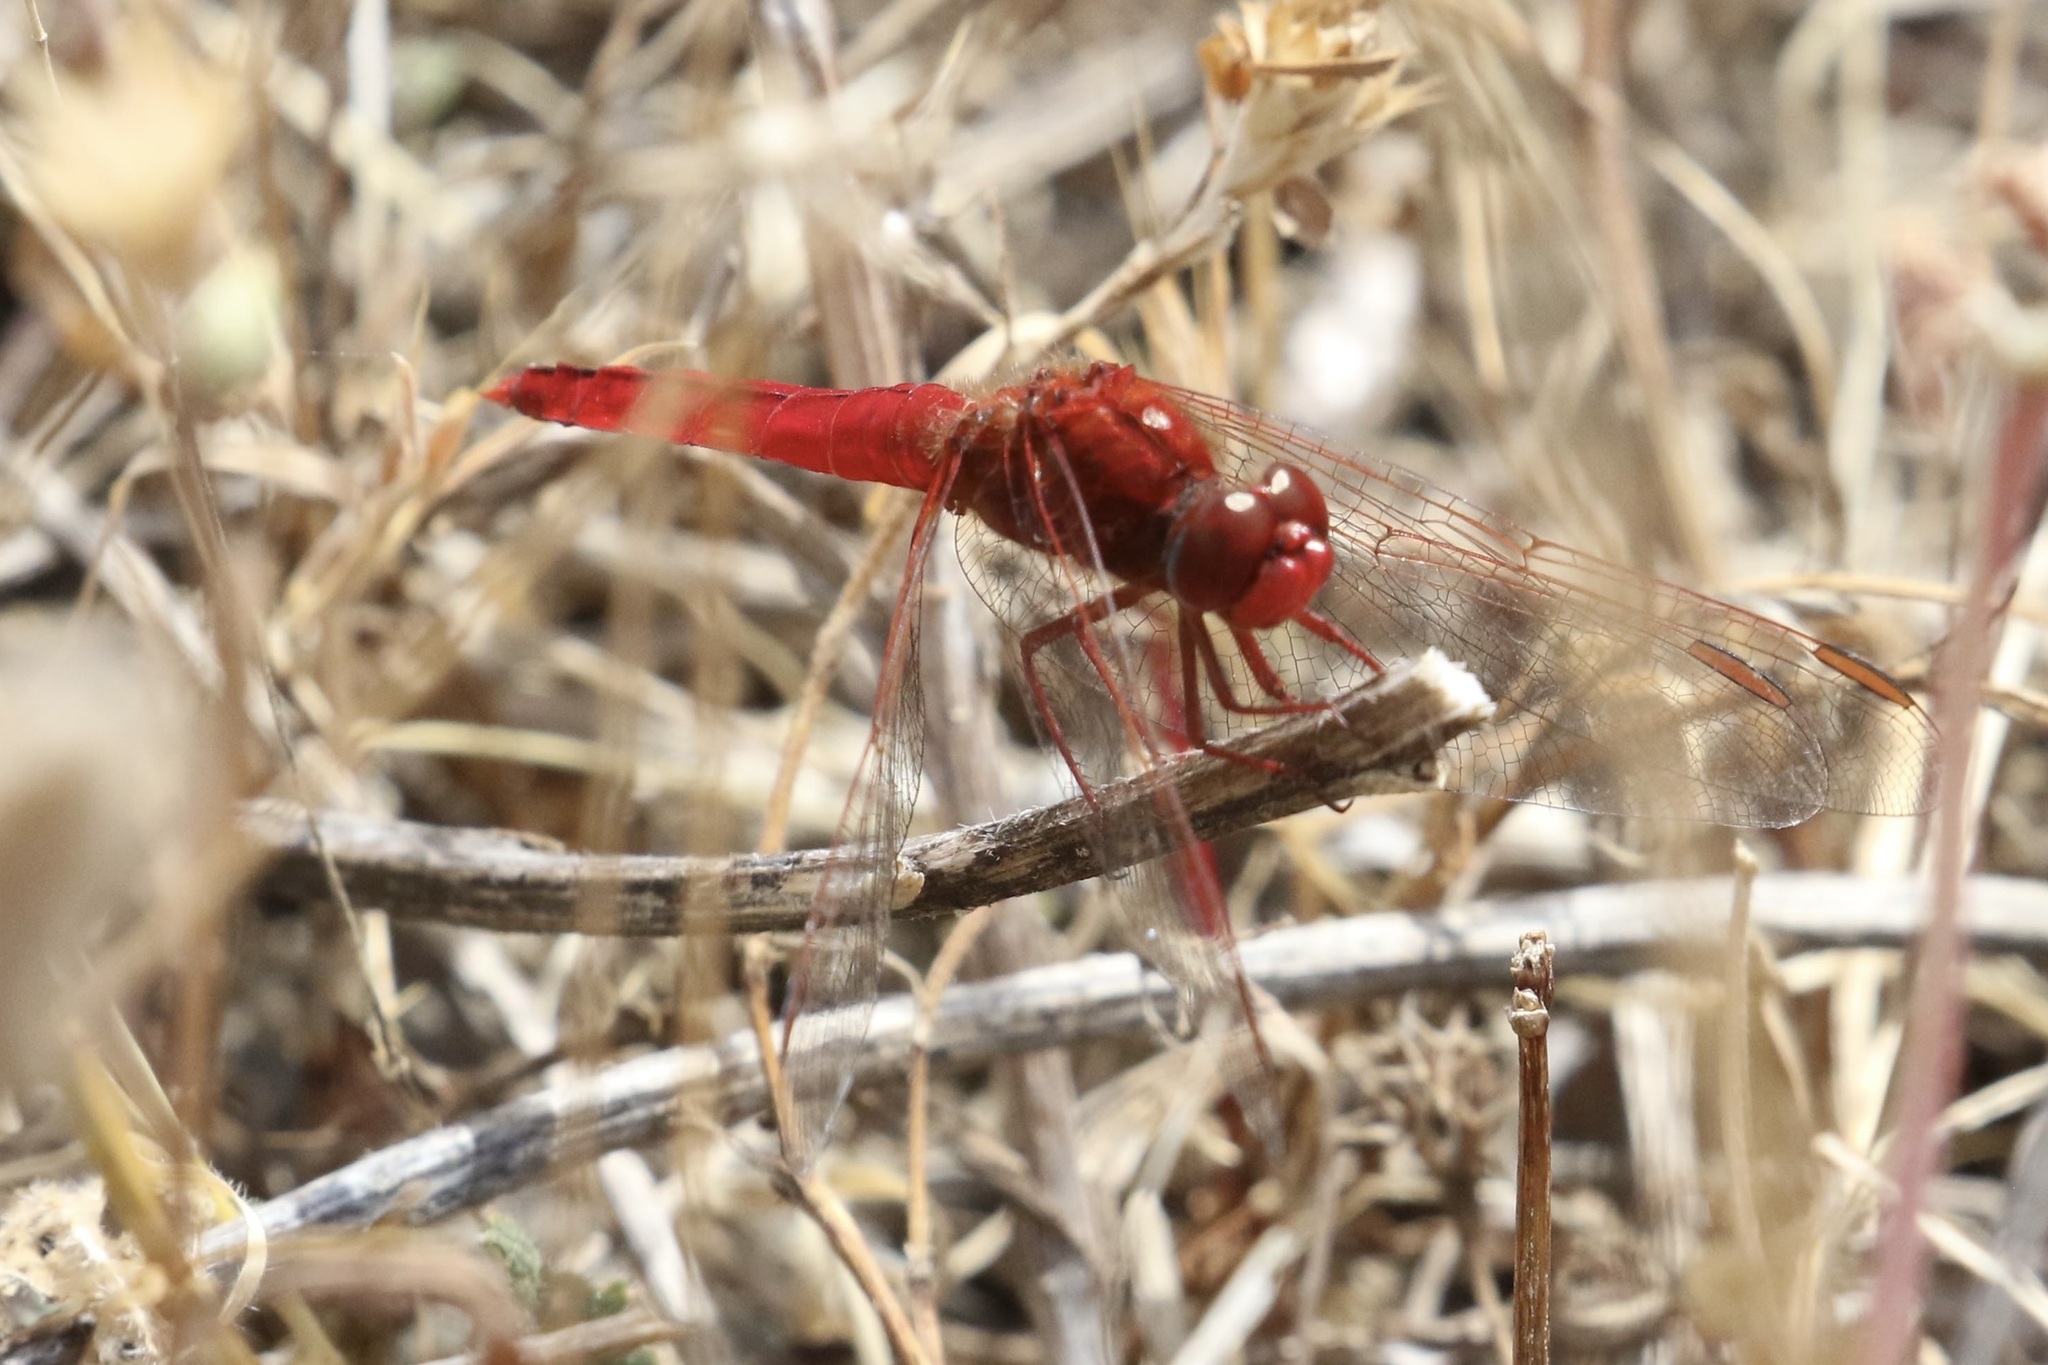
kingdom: Animalia
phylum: Arthropoda
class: Insecta
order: Odonata
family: Libellulidae
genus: Crocothemis
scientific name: Crocothemis erythraea
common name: Scarlet dragonfly
